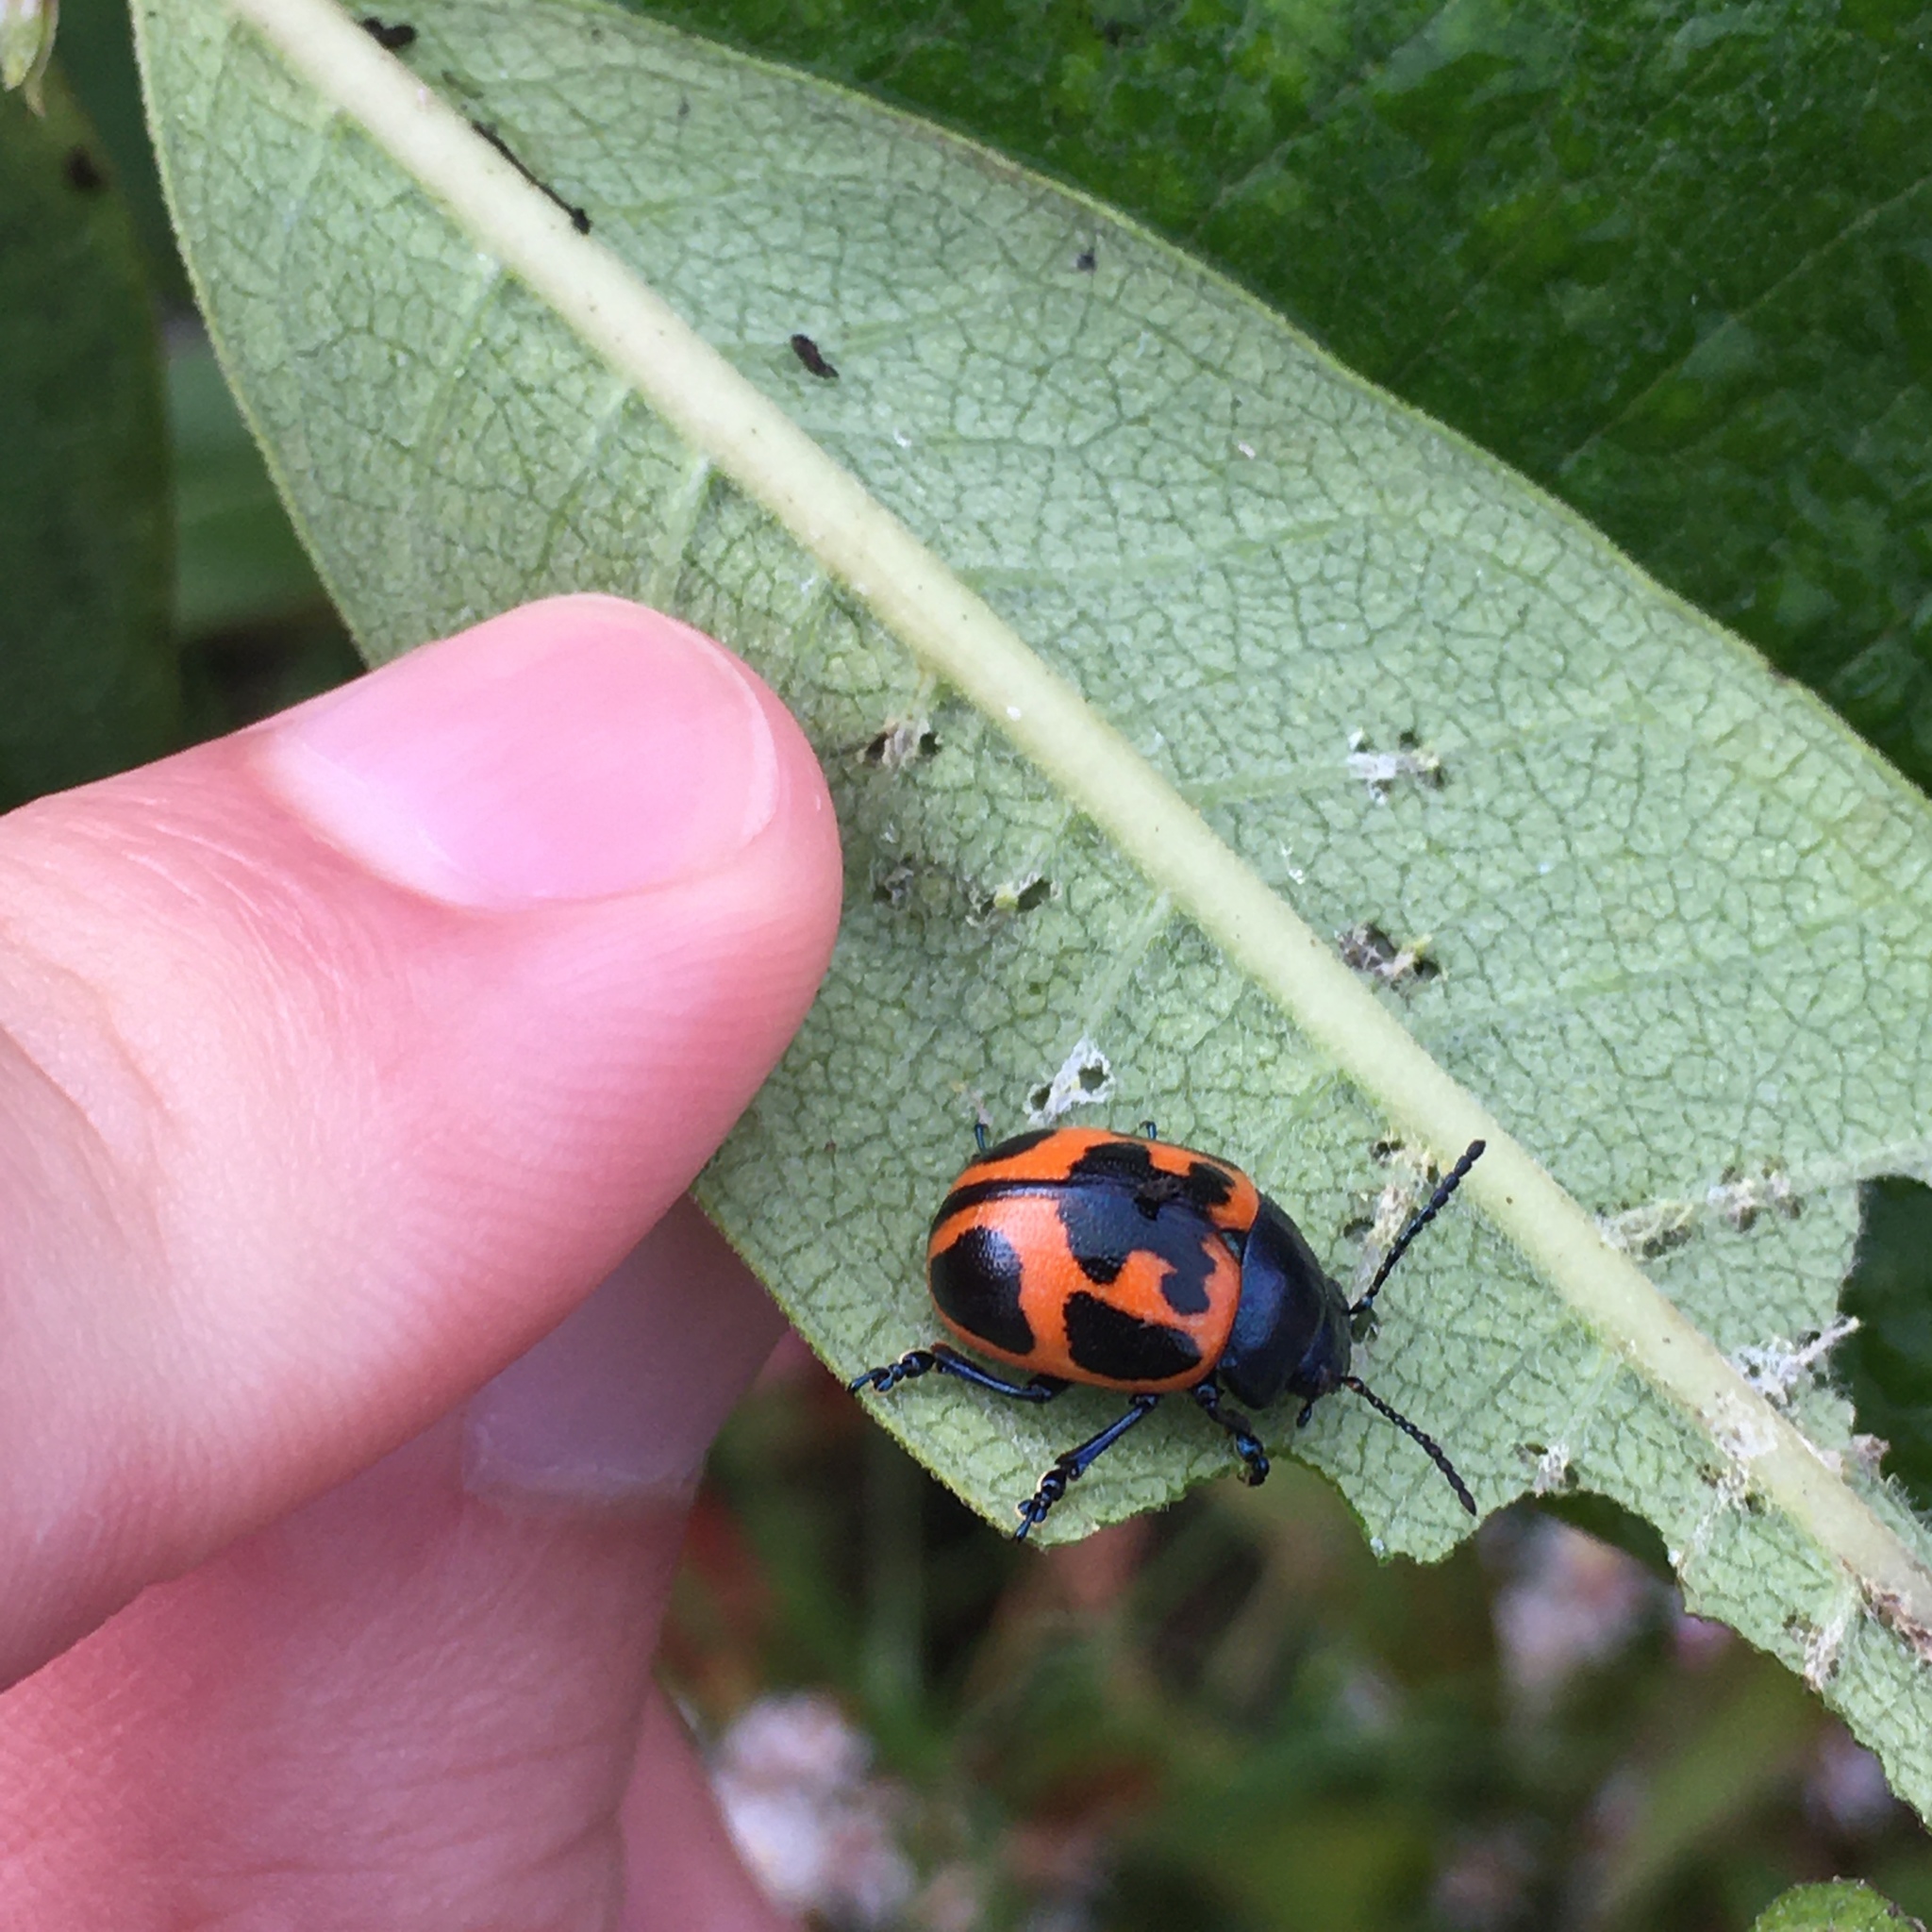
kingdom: Animalia
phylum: Arthropoda
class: Insecta
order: Coleoptera
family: Chrysomelidae
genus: Labidomera
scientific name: Labidomera clivicollis
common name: Swamp milkweed leaf beetle
